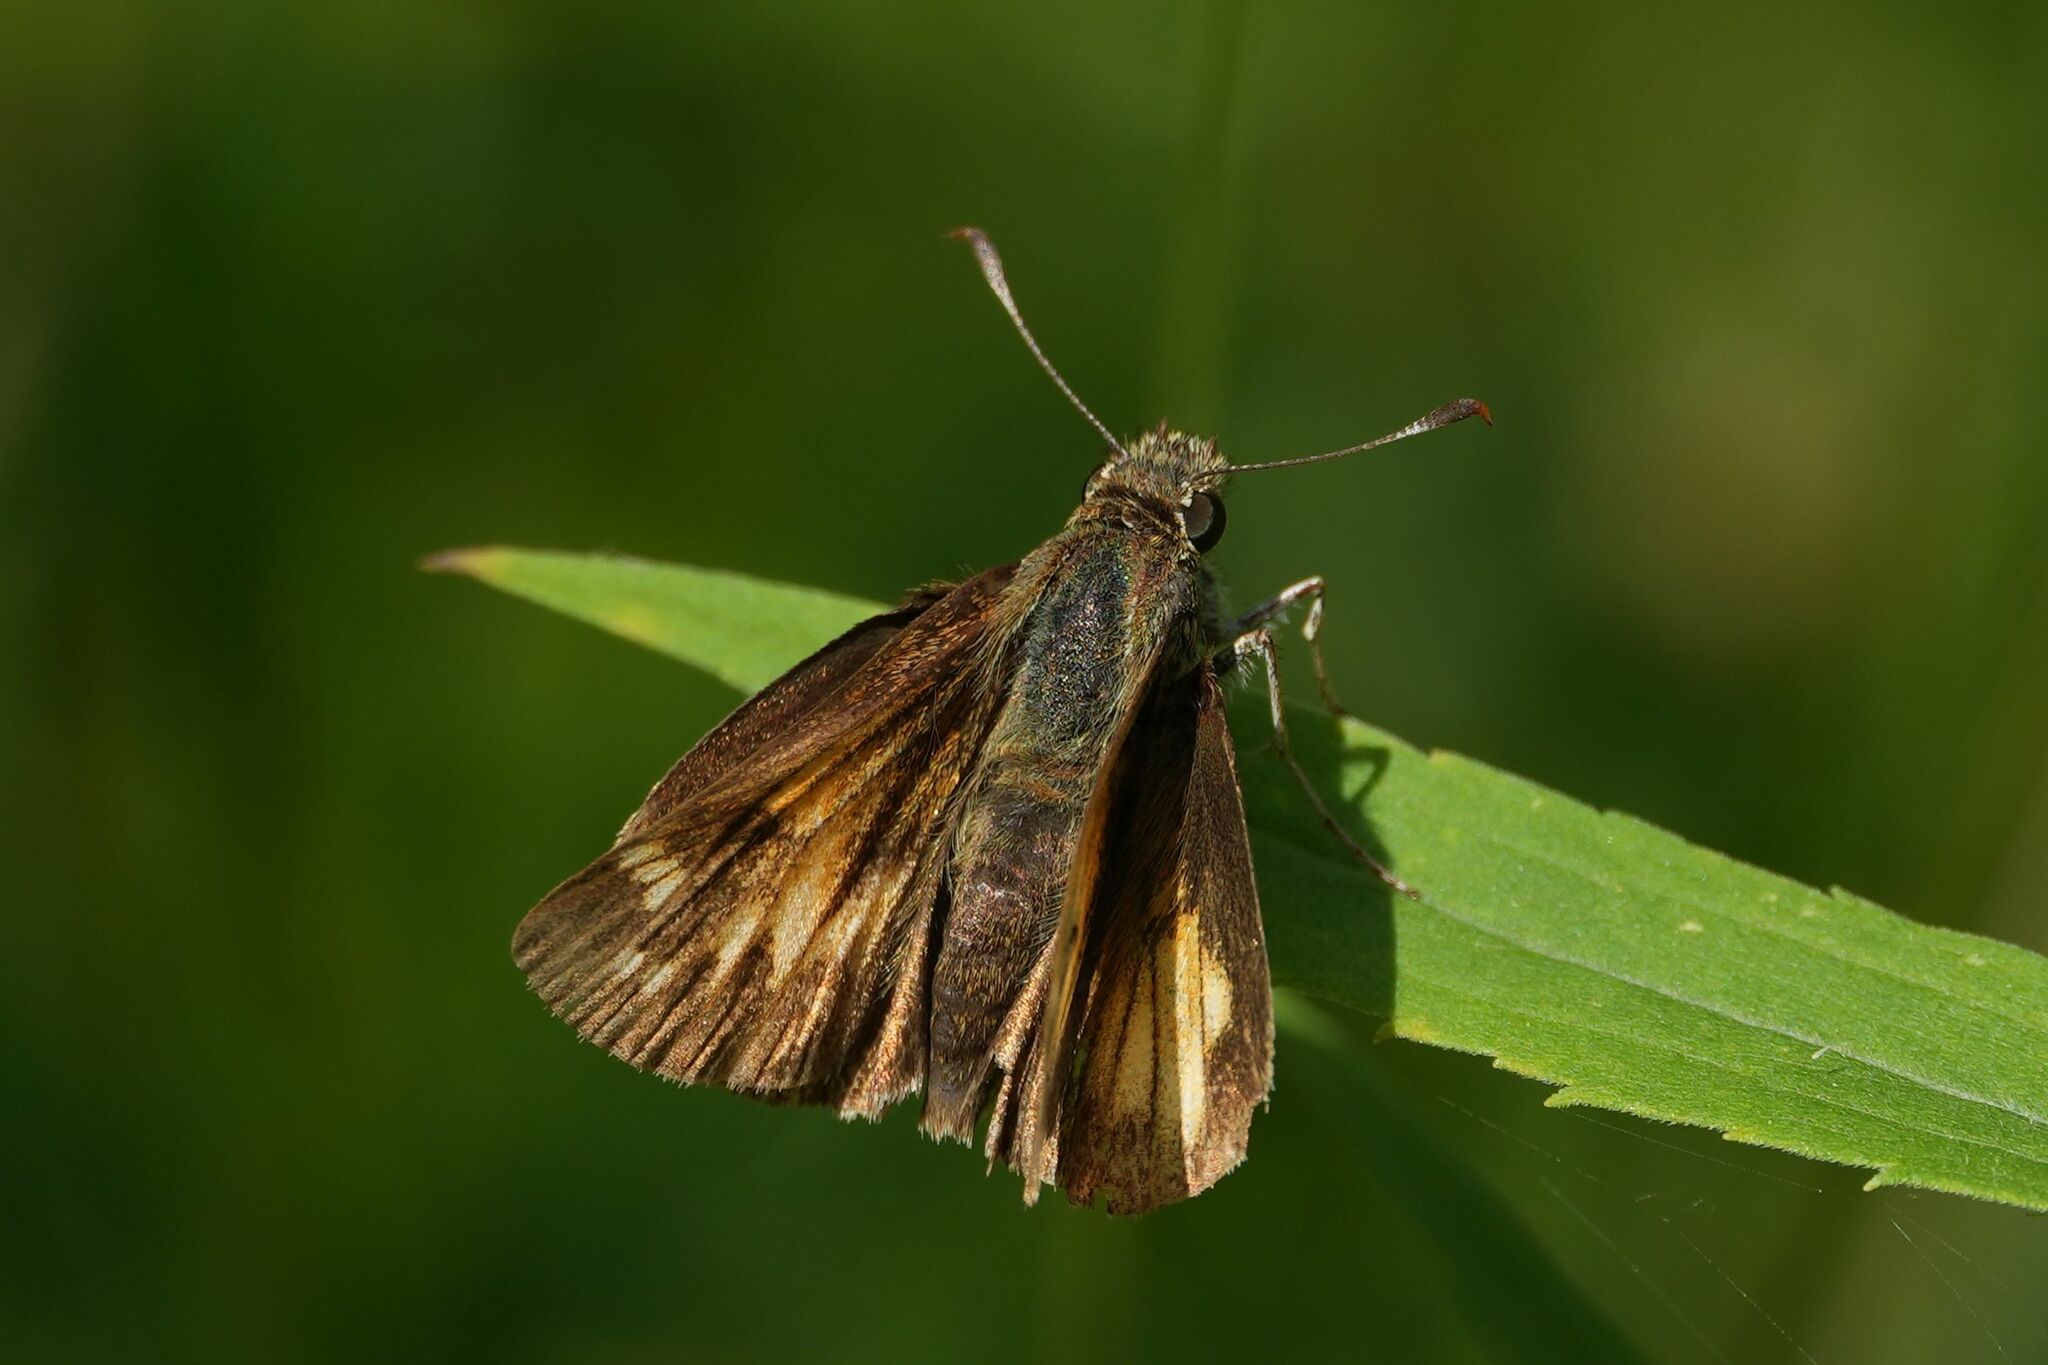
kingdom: Animalia
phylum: Arthropoda
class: Insecta
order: Lepidoptera
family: Hesperiidae
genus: Lon
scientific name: Lon hobomok
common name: Hobomok skipper
